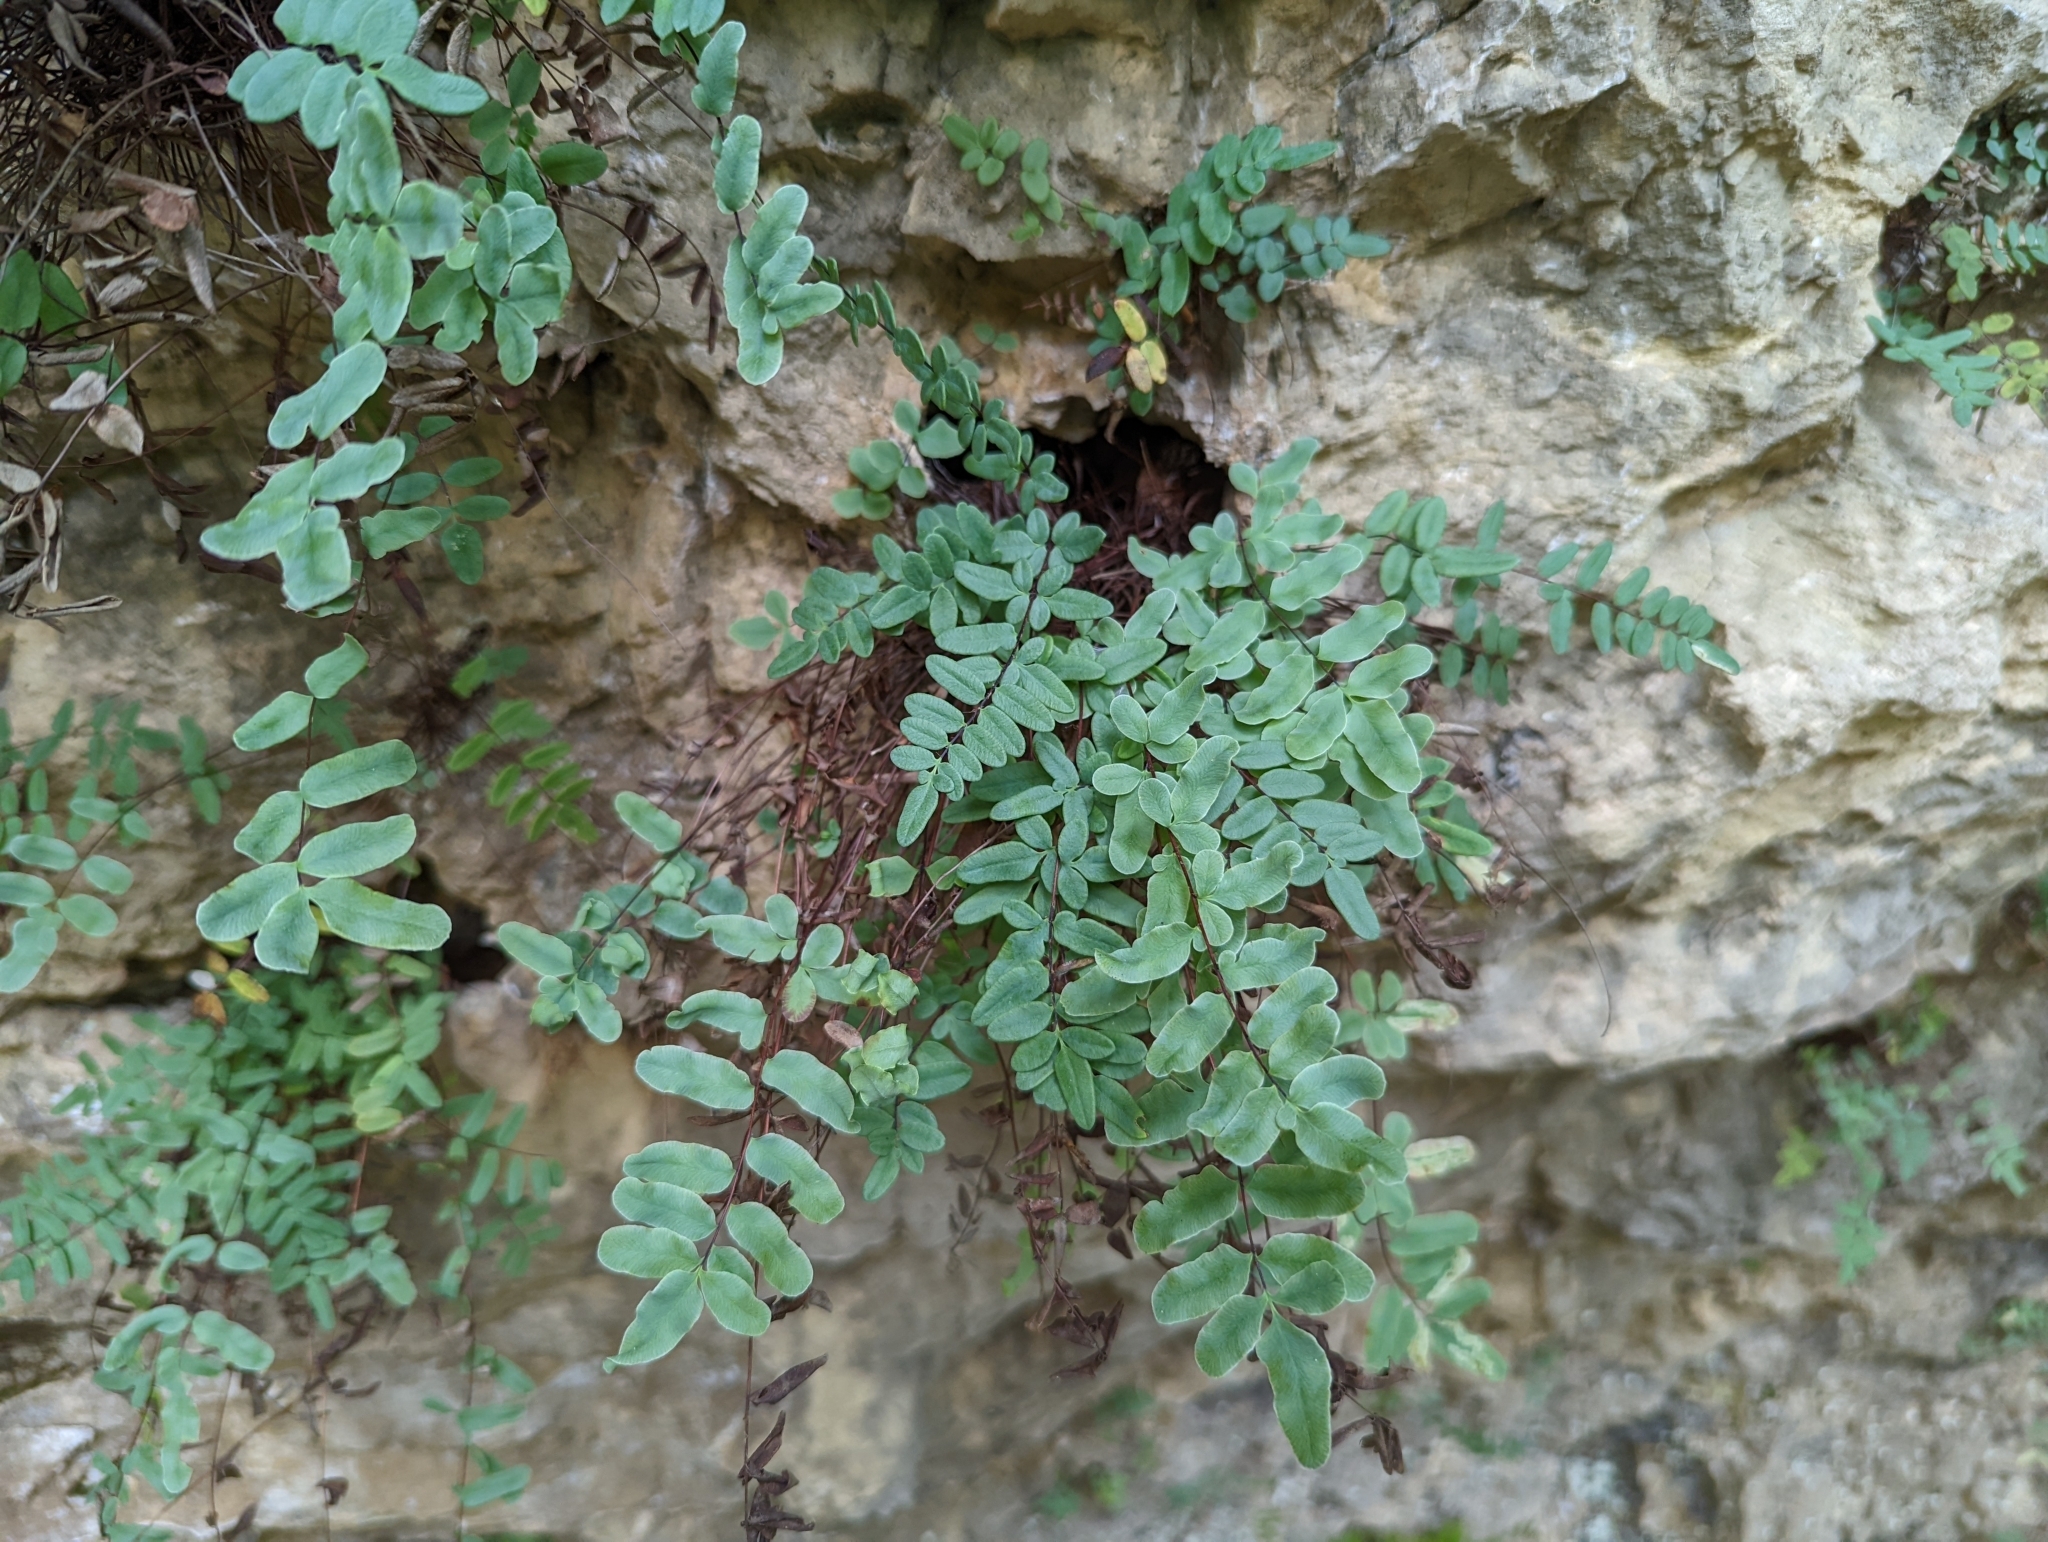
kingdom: Plantae
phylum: Tracheophyta
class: Polypodiopsida
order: Polypodiales
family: Pteridaceae
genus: Pellaea
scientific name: Pellaea glabella
